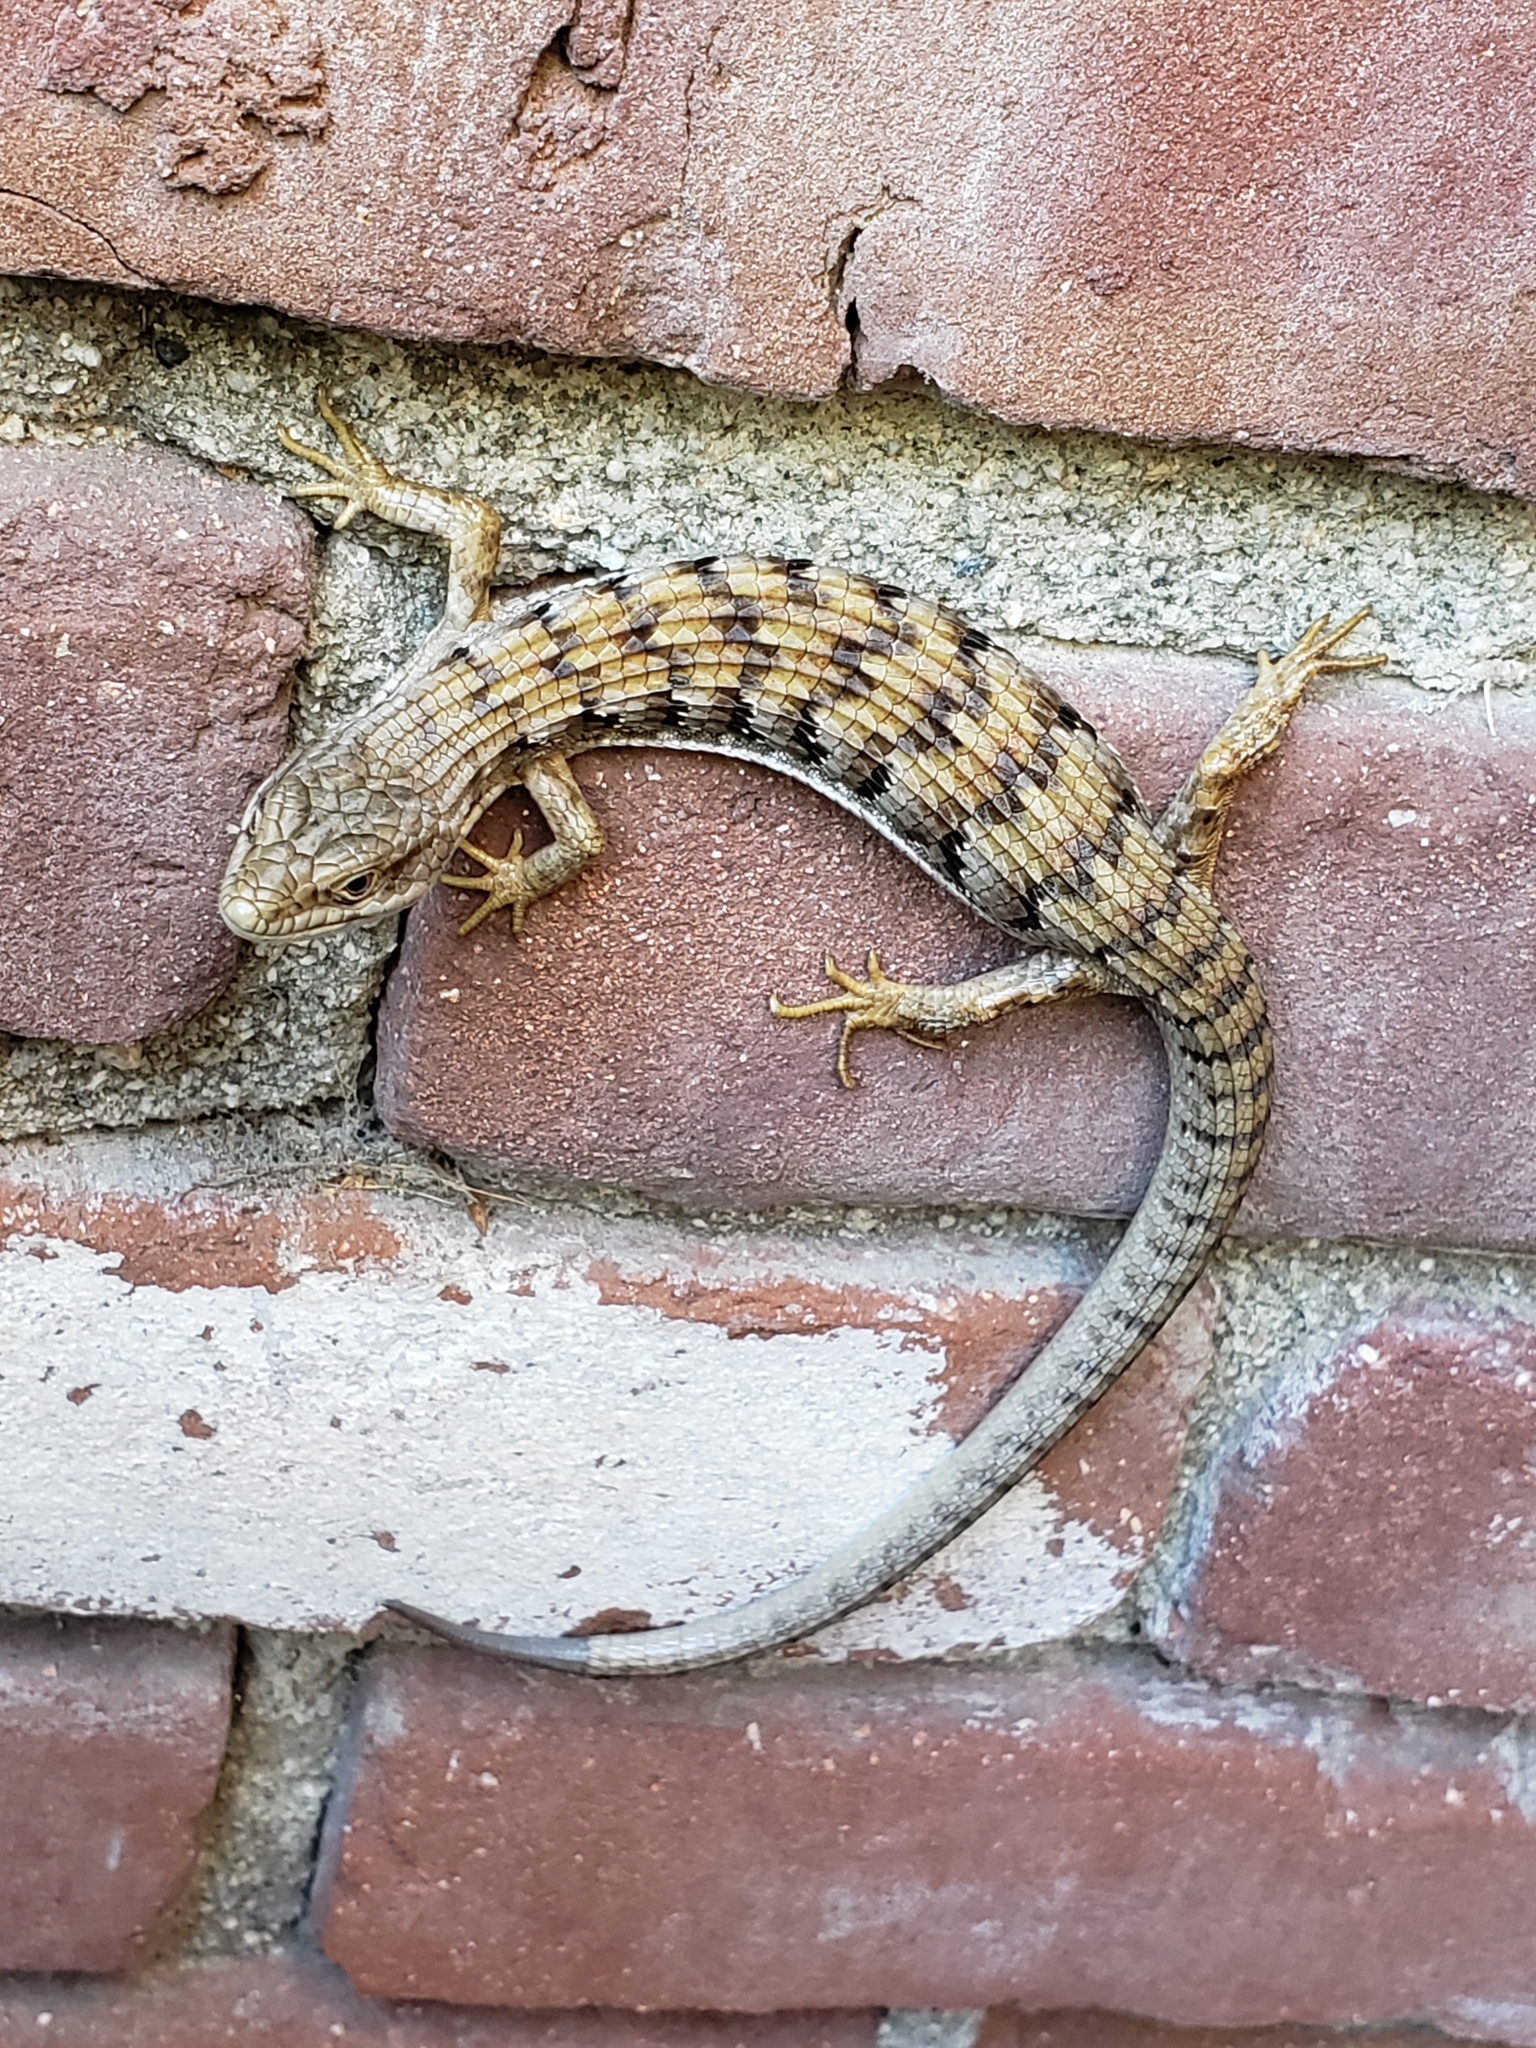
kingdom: Animalia
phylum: Chordata
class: Squamata
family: Anguidae
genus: Elgaria
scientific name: Elgaria multicarinata
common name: Southern alligator lizard
